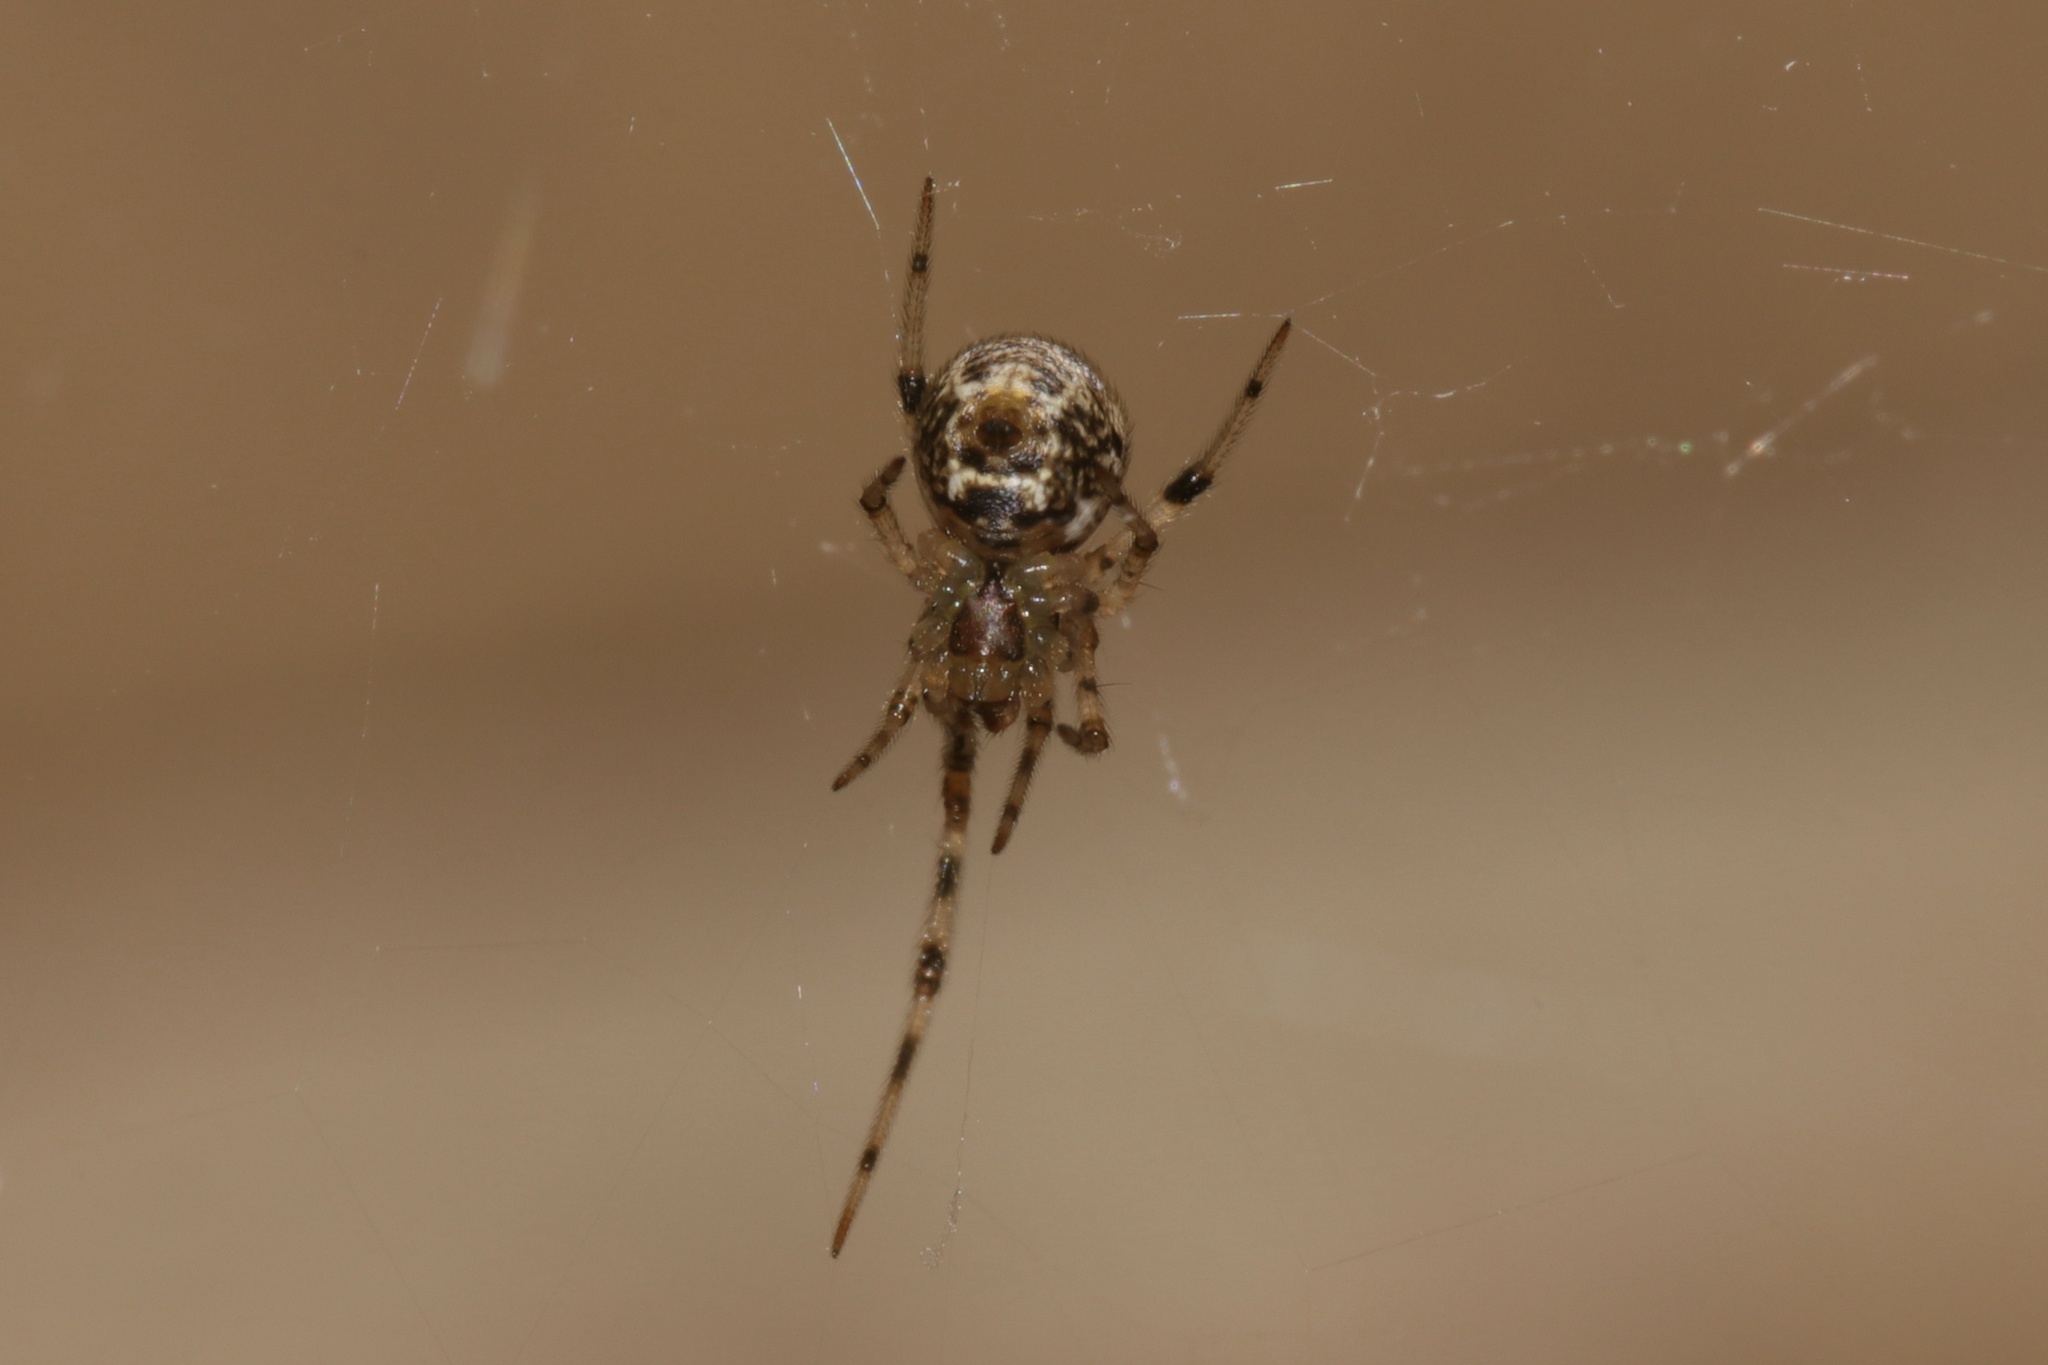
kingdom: Animalia
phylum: Arthropoda
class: Arachnida
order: Araneae
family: Theridiidae
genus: Parasteatoda
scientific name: Parasteatoda tepidariorum
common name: Common house spider
